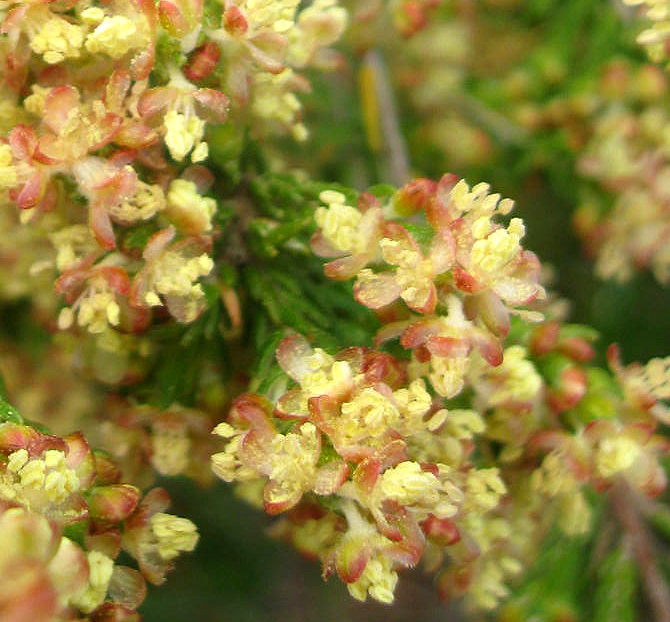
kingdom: Plantae
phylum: Tracheophyta
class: Magnoliopsida
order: Malvales
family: Thymelaeaceae
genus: Passerina
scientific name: Passerina corymbosa
